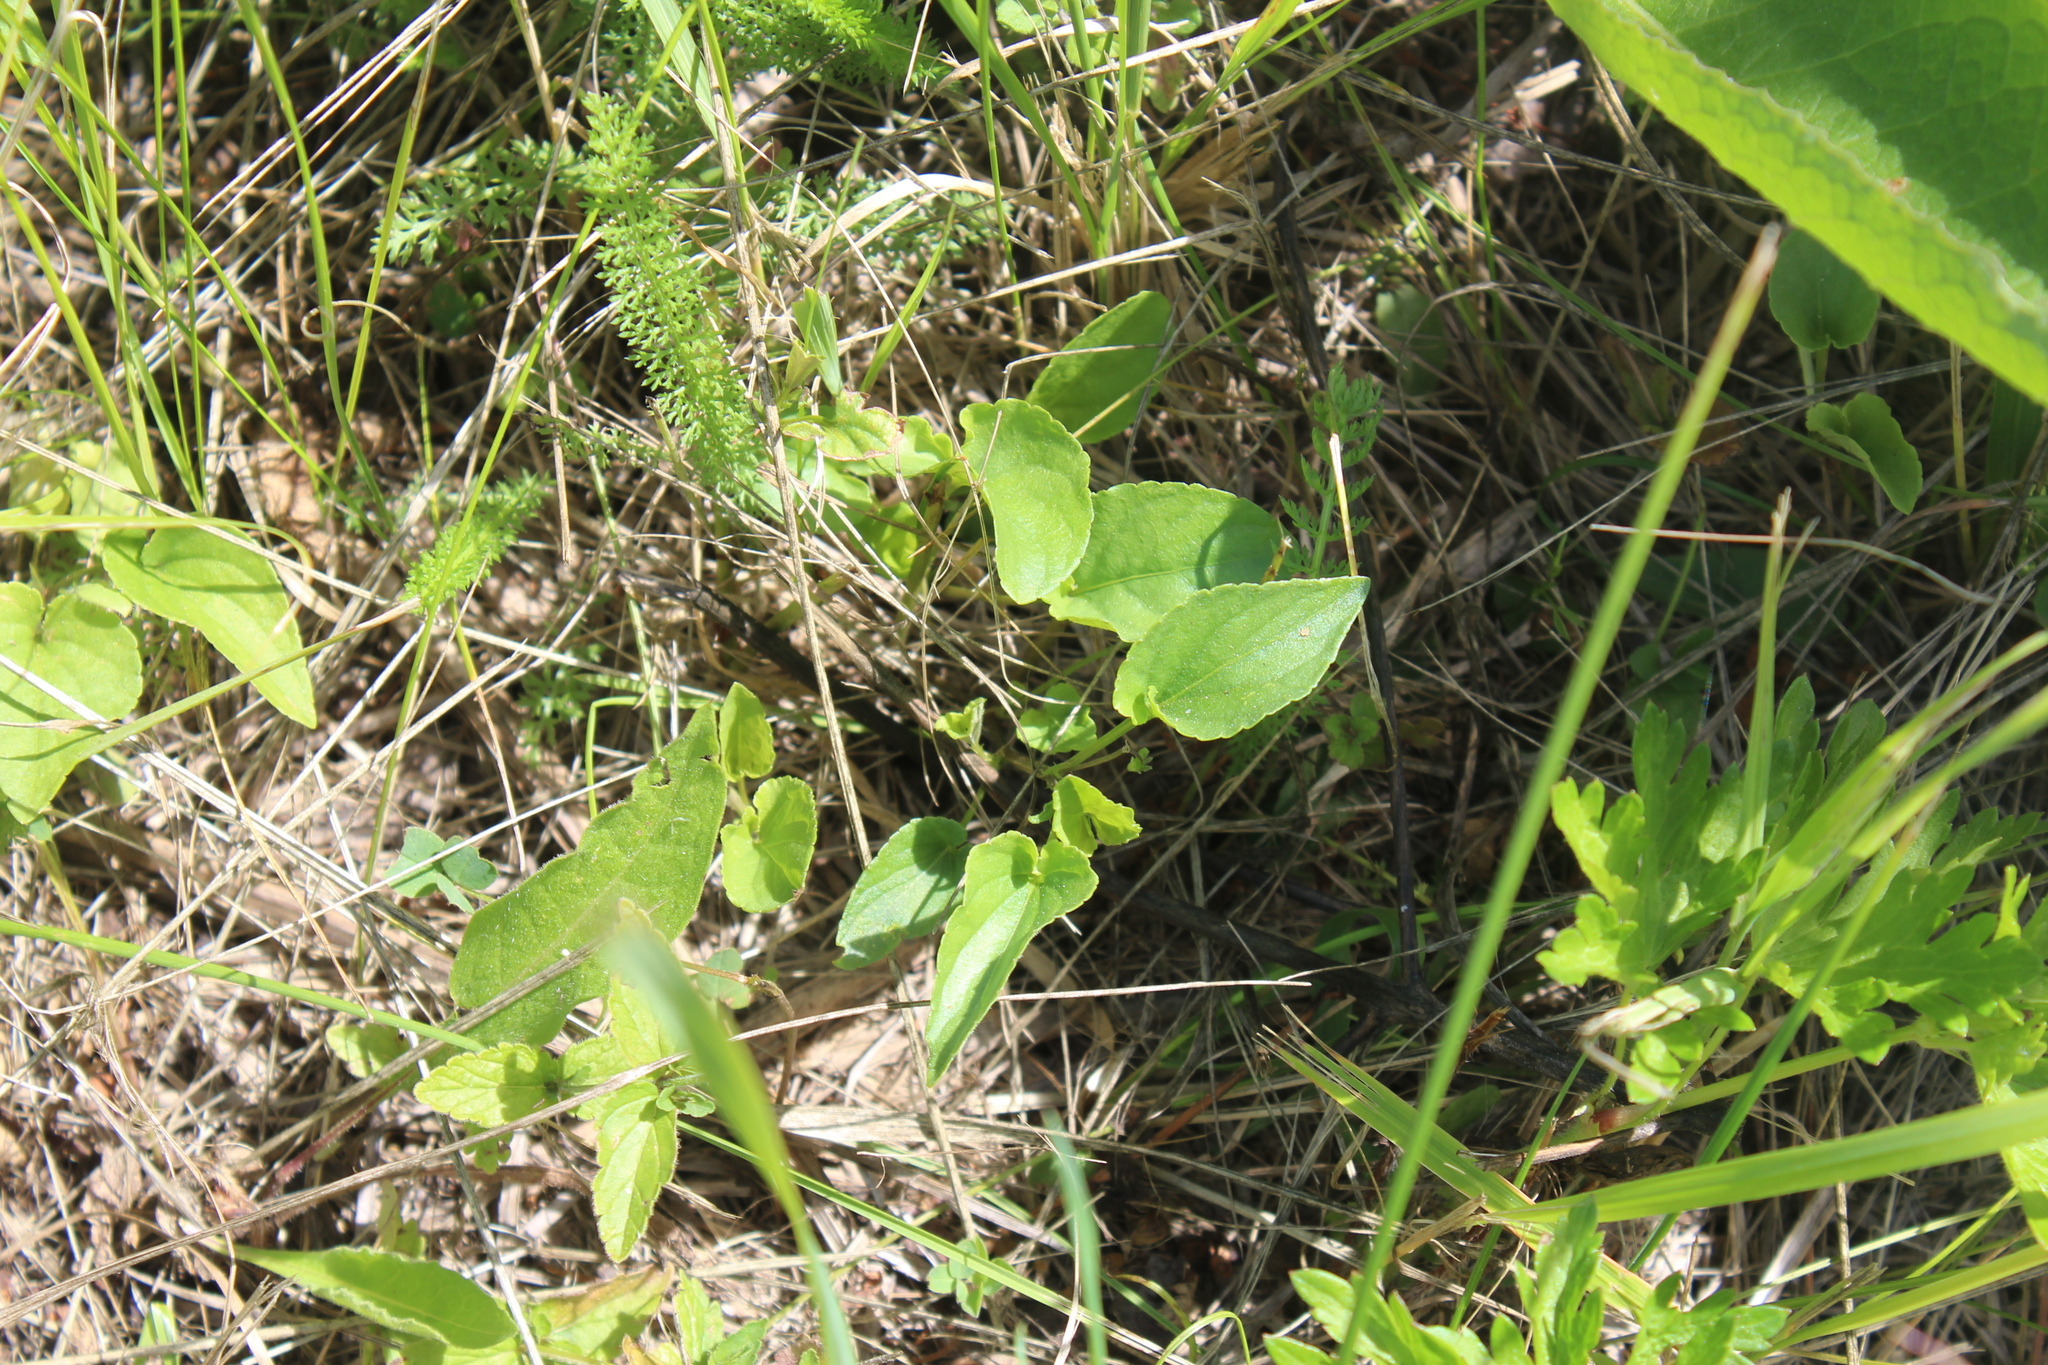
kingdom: Plantae
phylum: Tracheophyta
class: Magnoliopsida
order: Malpighiales
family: Violaceae
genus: Viola
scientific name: Viola canina
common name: Heath dog-violet
